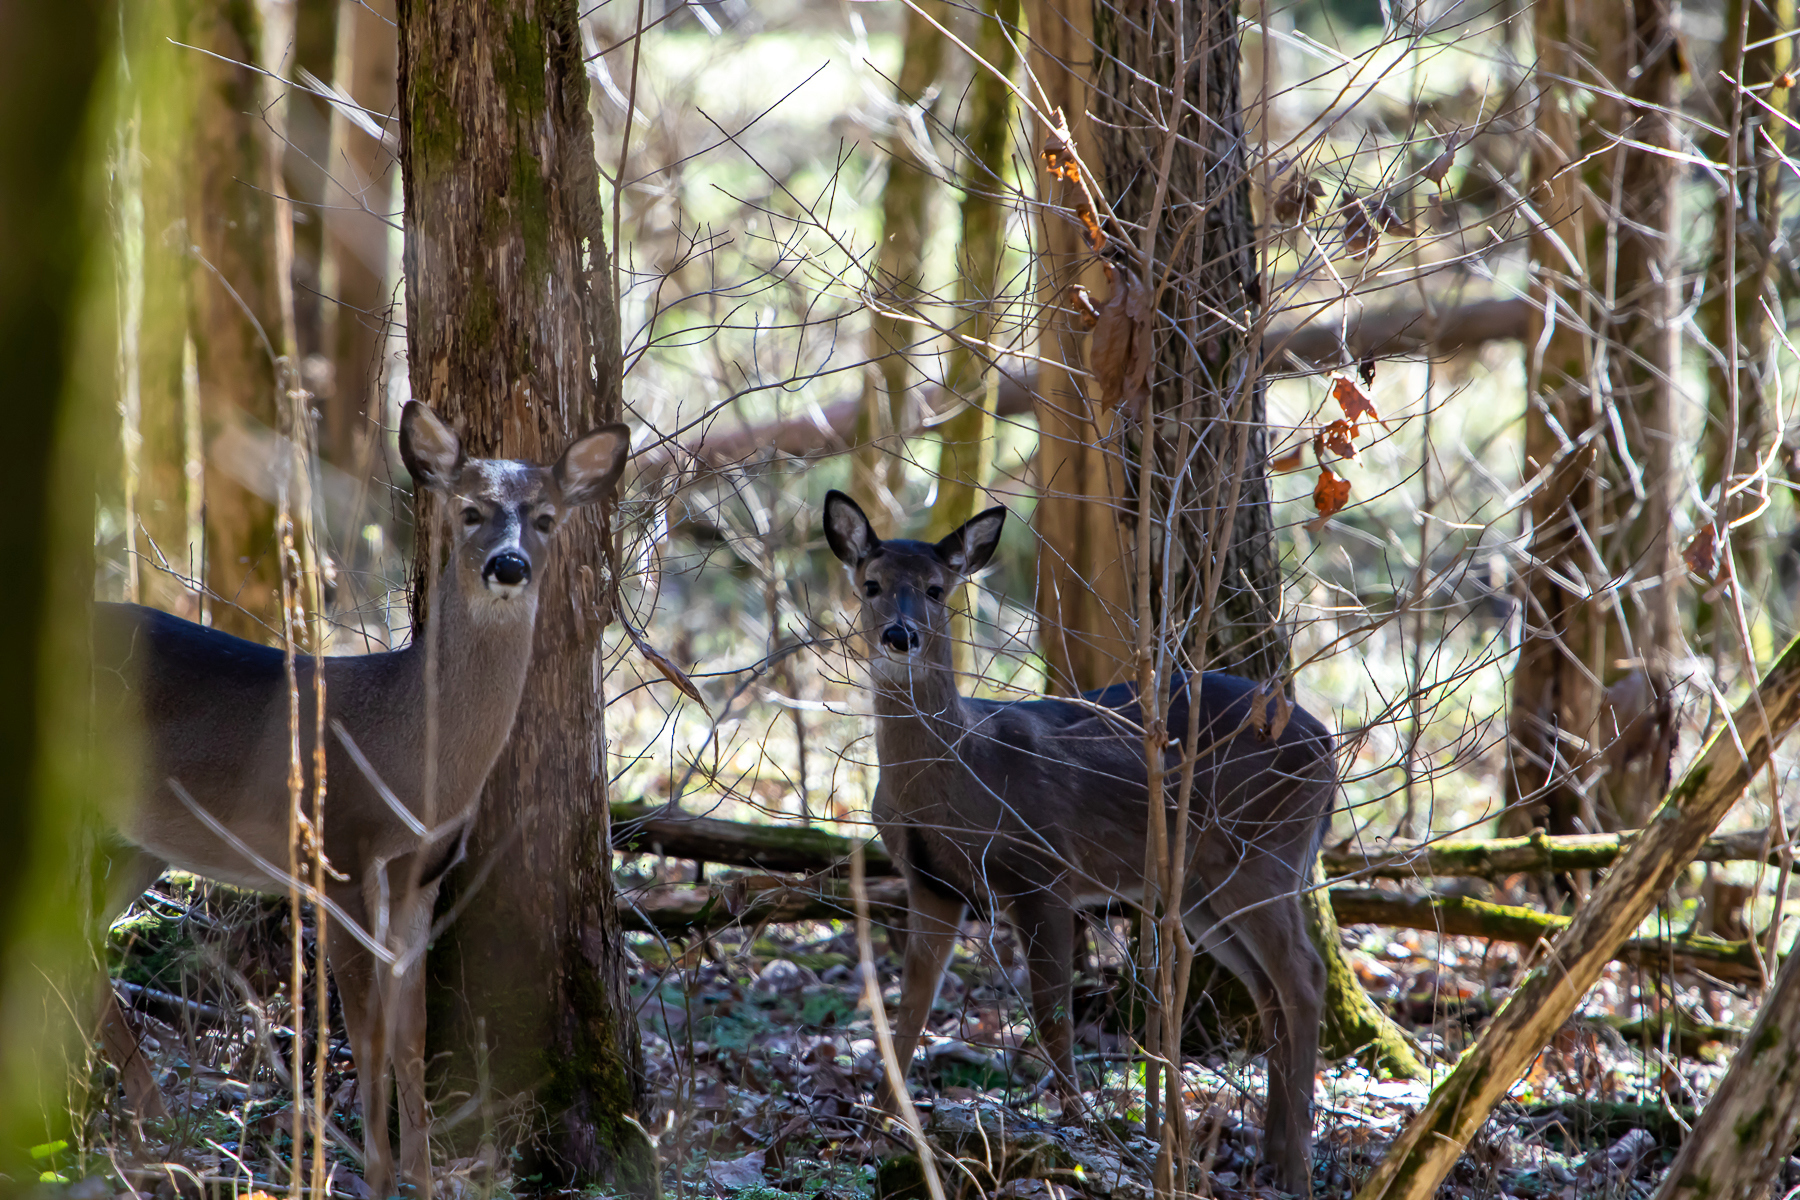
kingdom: Animalia
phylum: Chordata
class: Mammalia
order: Artiodactyla
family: Cervidae
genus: Odocoileus
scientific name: Odocoileus virginianus
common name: White-tailed deer
